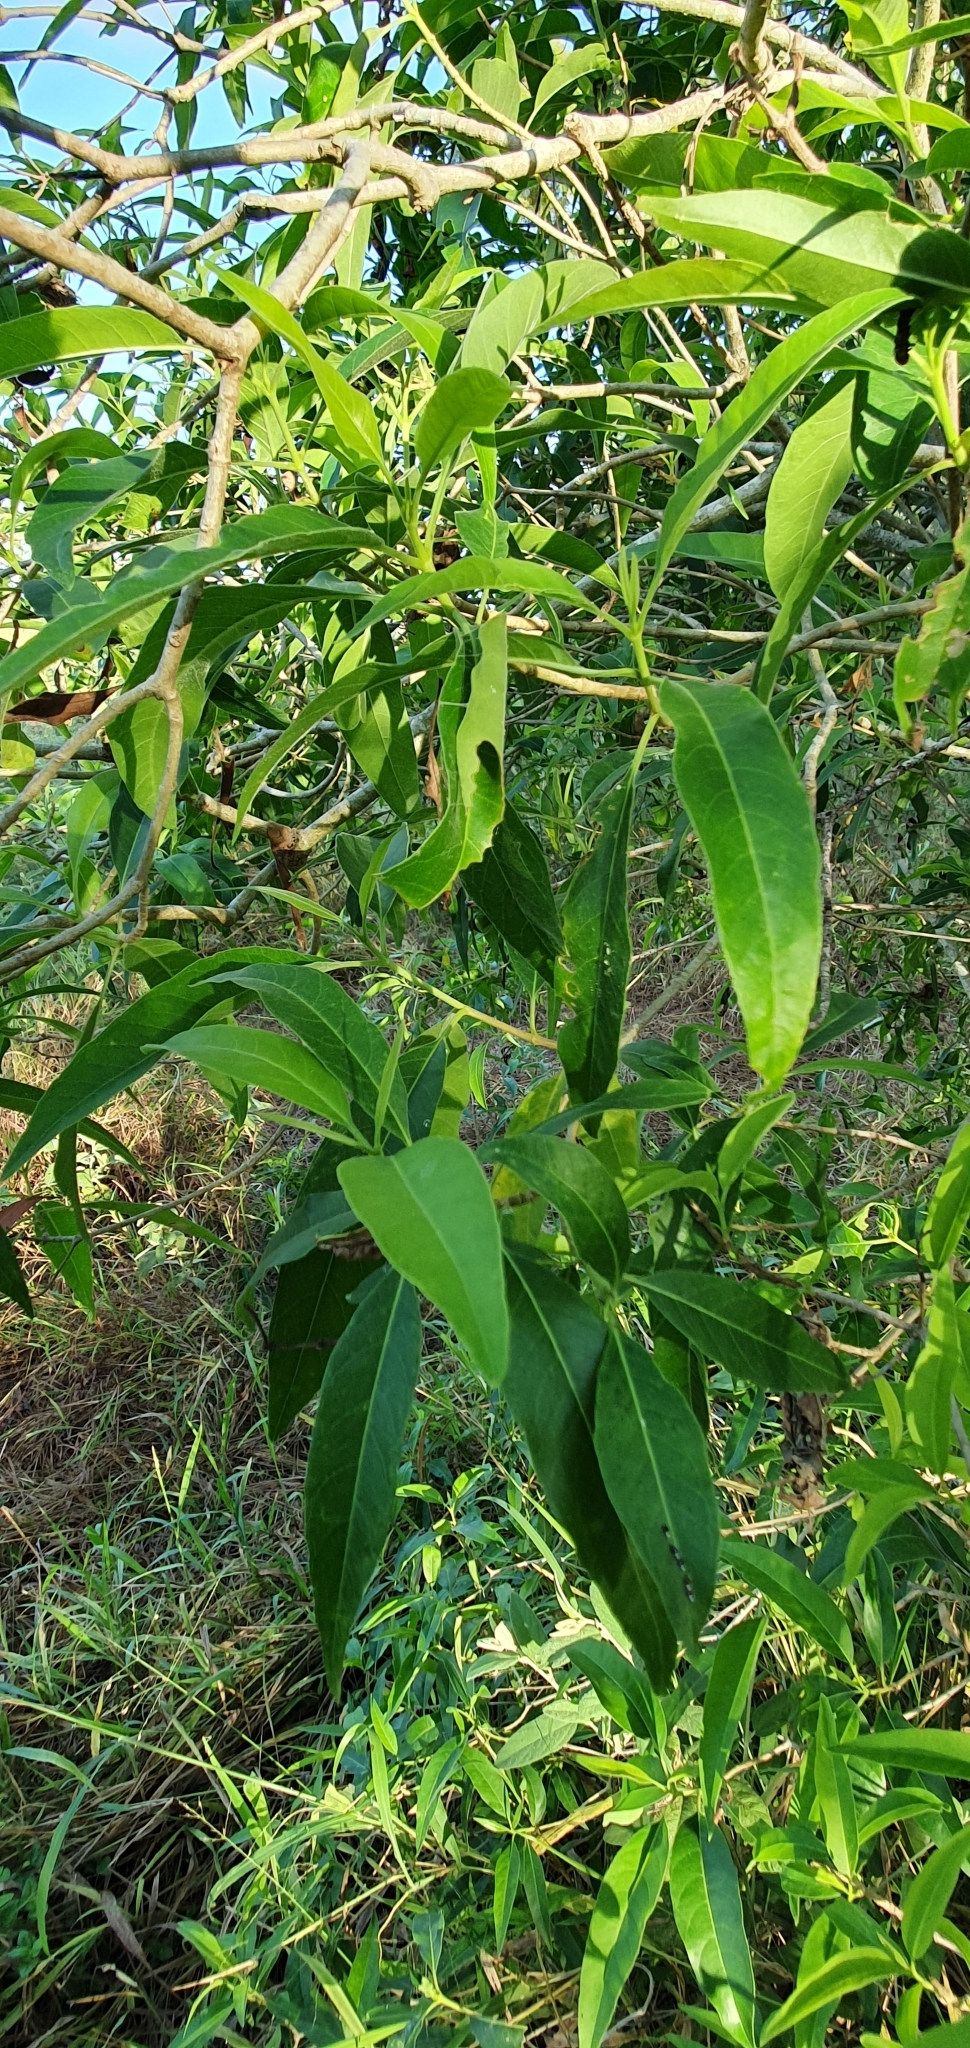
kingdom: Plantae
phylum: Tracheophyta
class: Magnoliopsida
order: Gentianales
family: Apocynaceae
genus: Alstonia
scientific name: Alstonia mollis
